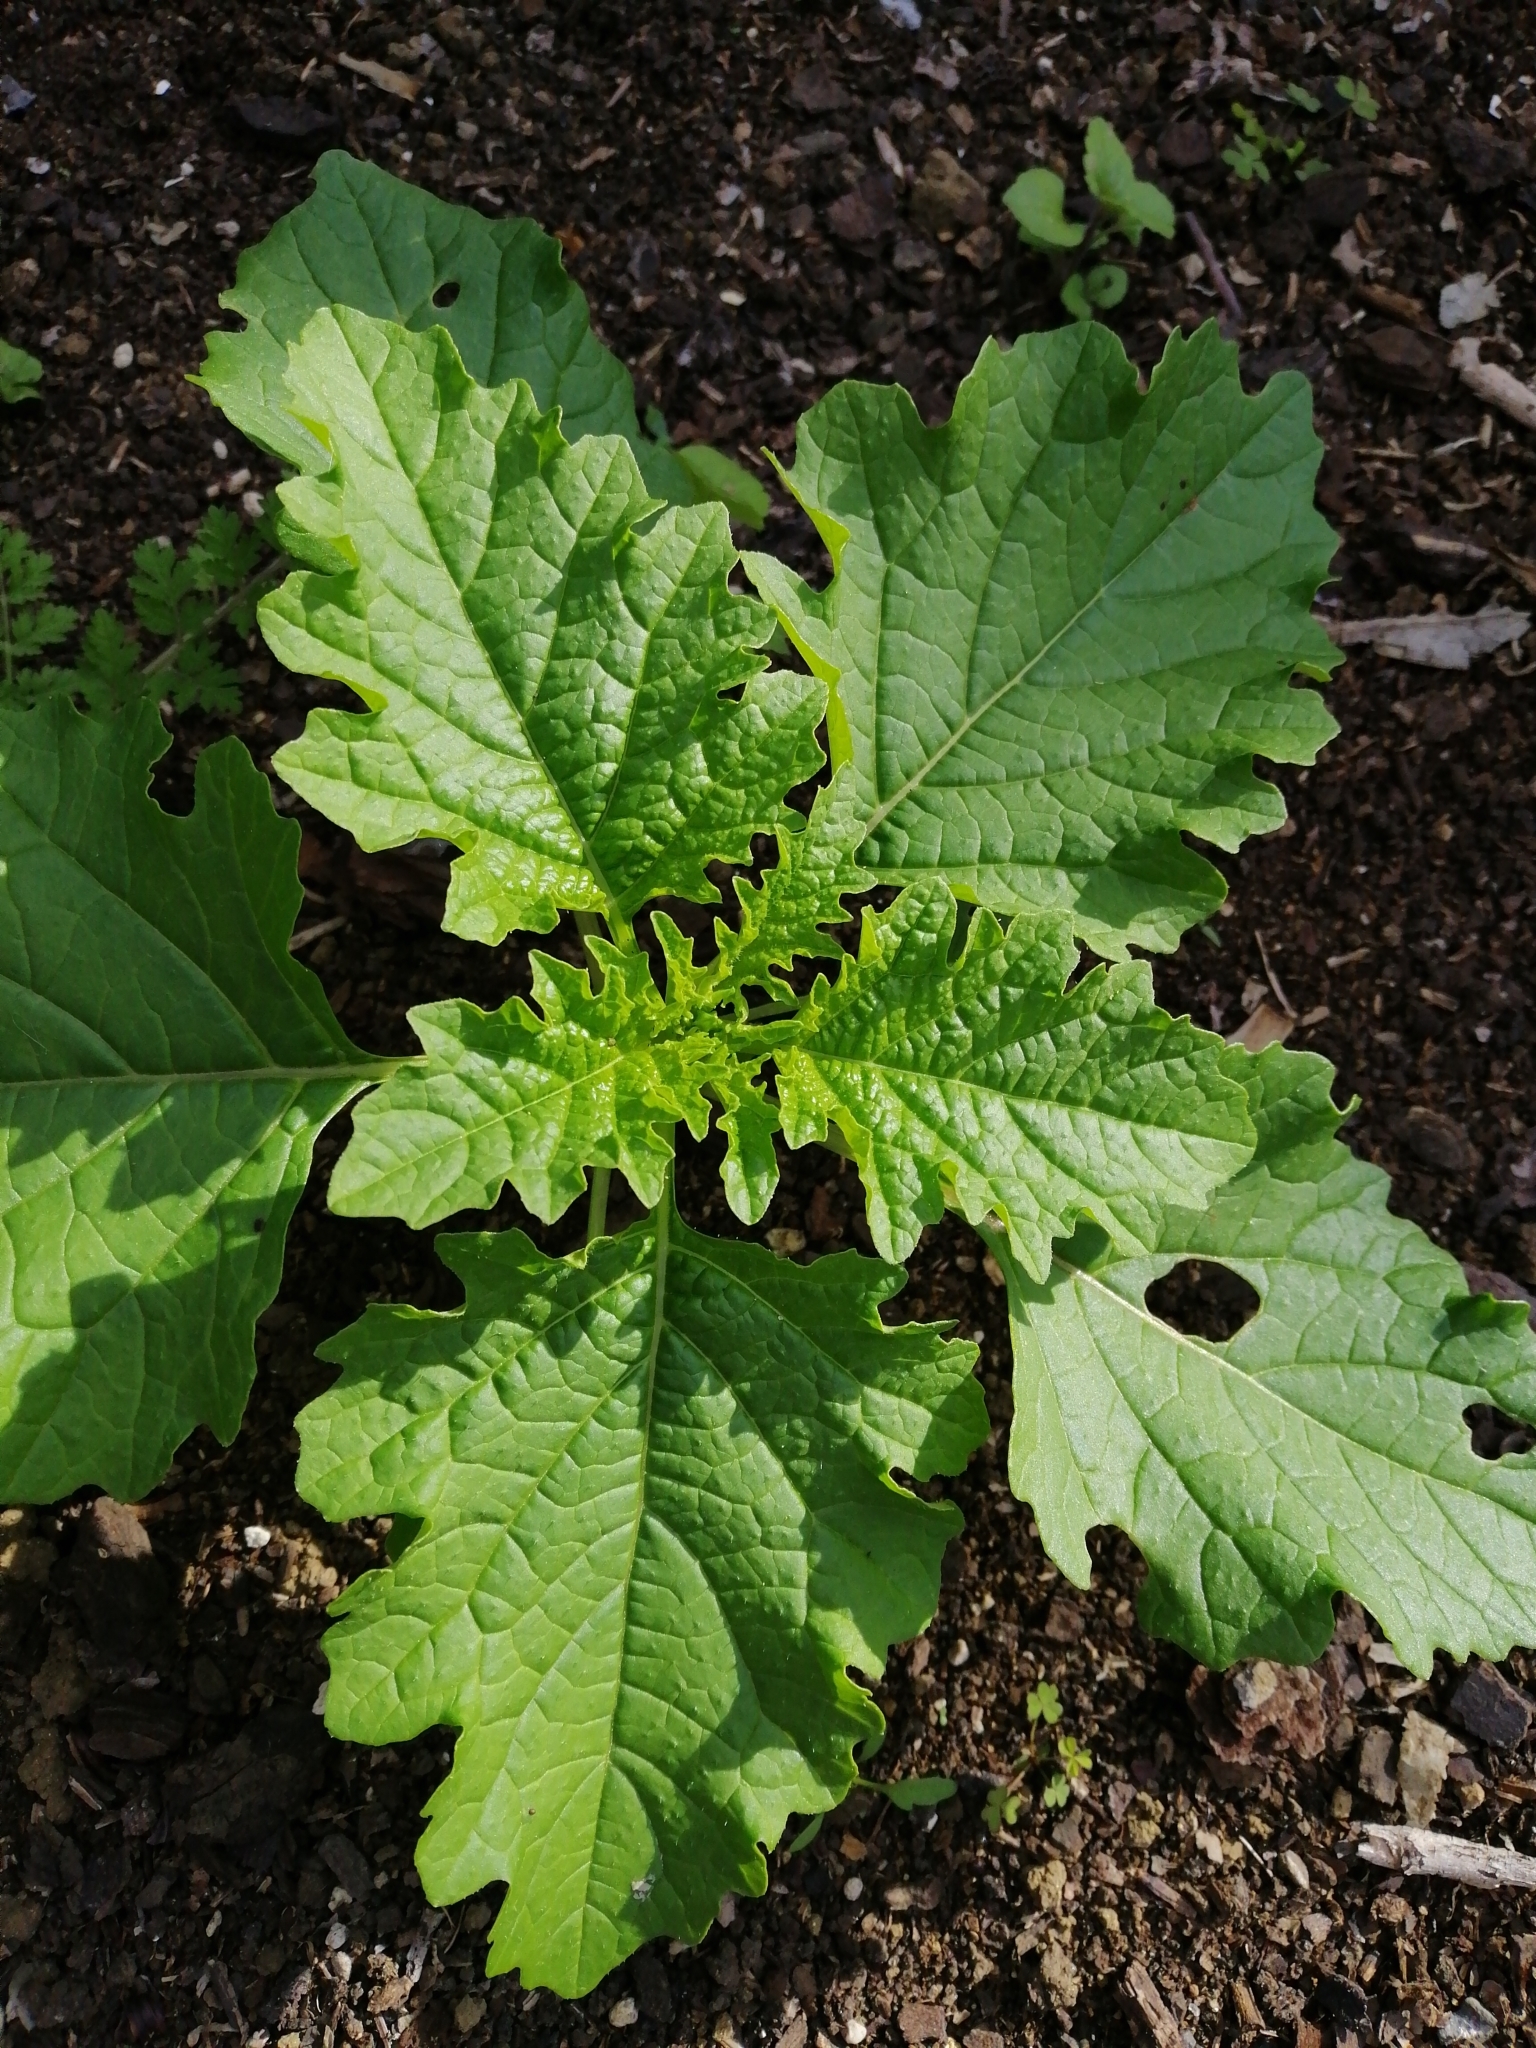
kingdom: Plantae
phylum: Tracheophyta
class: Magnoliopsida
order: Solanales
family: Solanaceae
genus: Nicandra
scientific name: Nicandra physalodes
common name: Apple-of-peru
